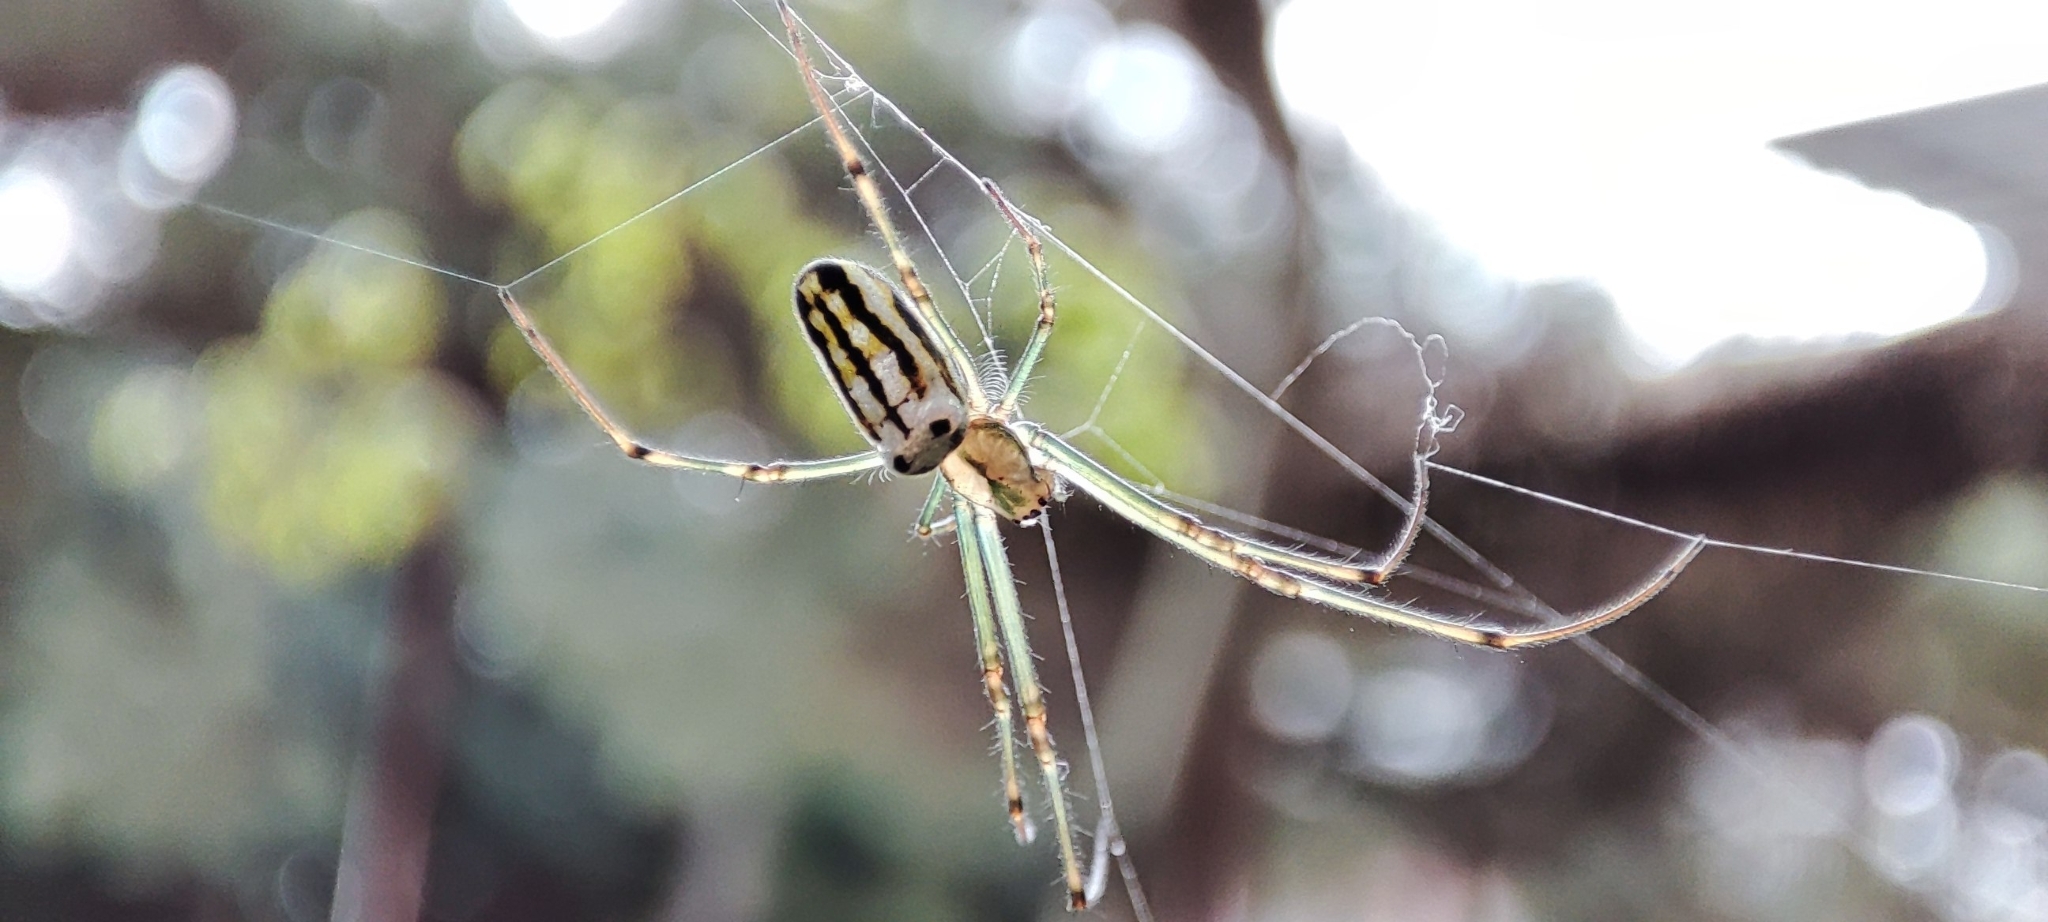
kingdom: Animalia
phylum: Arthropoda
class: Arachnida
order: Araneae
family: Tetragnathidae
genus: Leucauge
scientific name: Leucauge blanda
